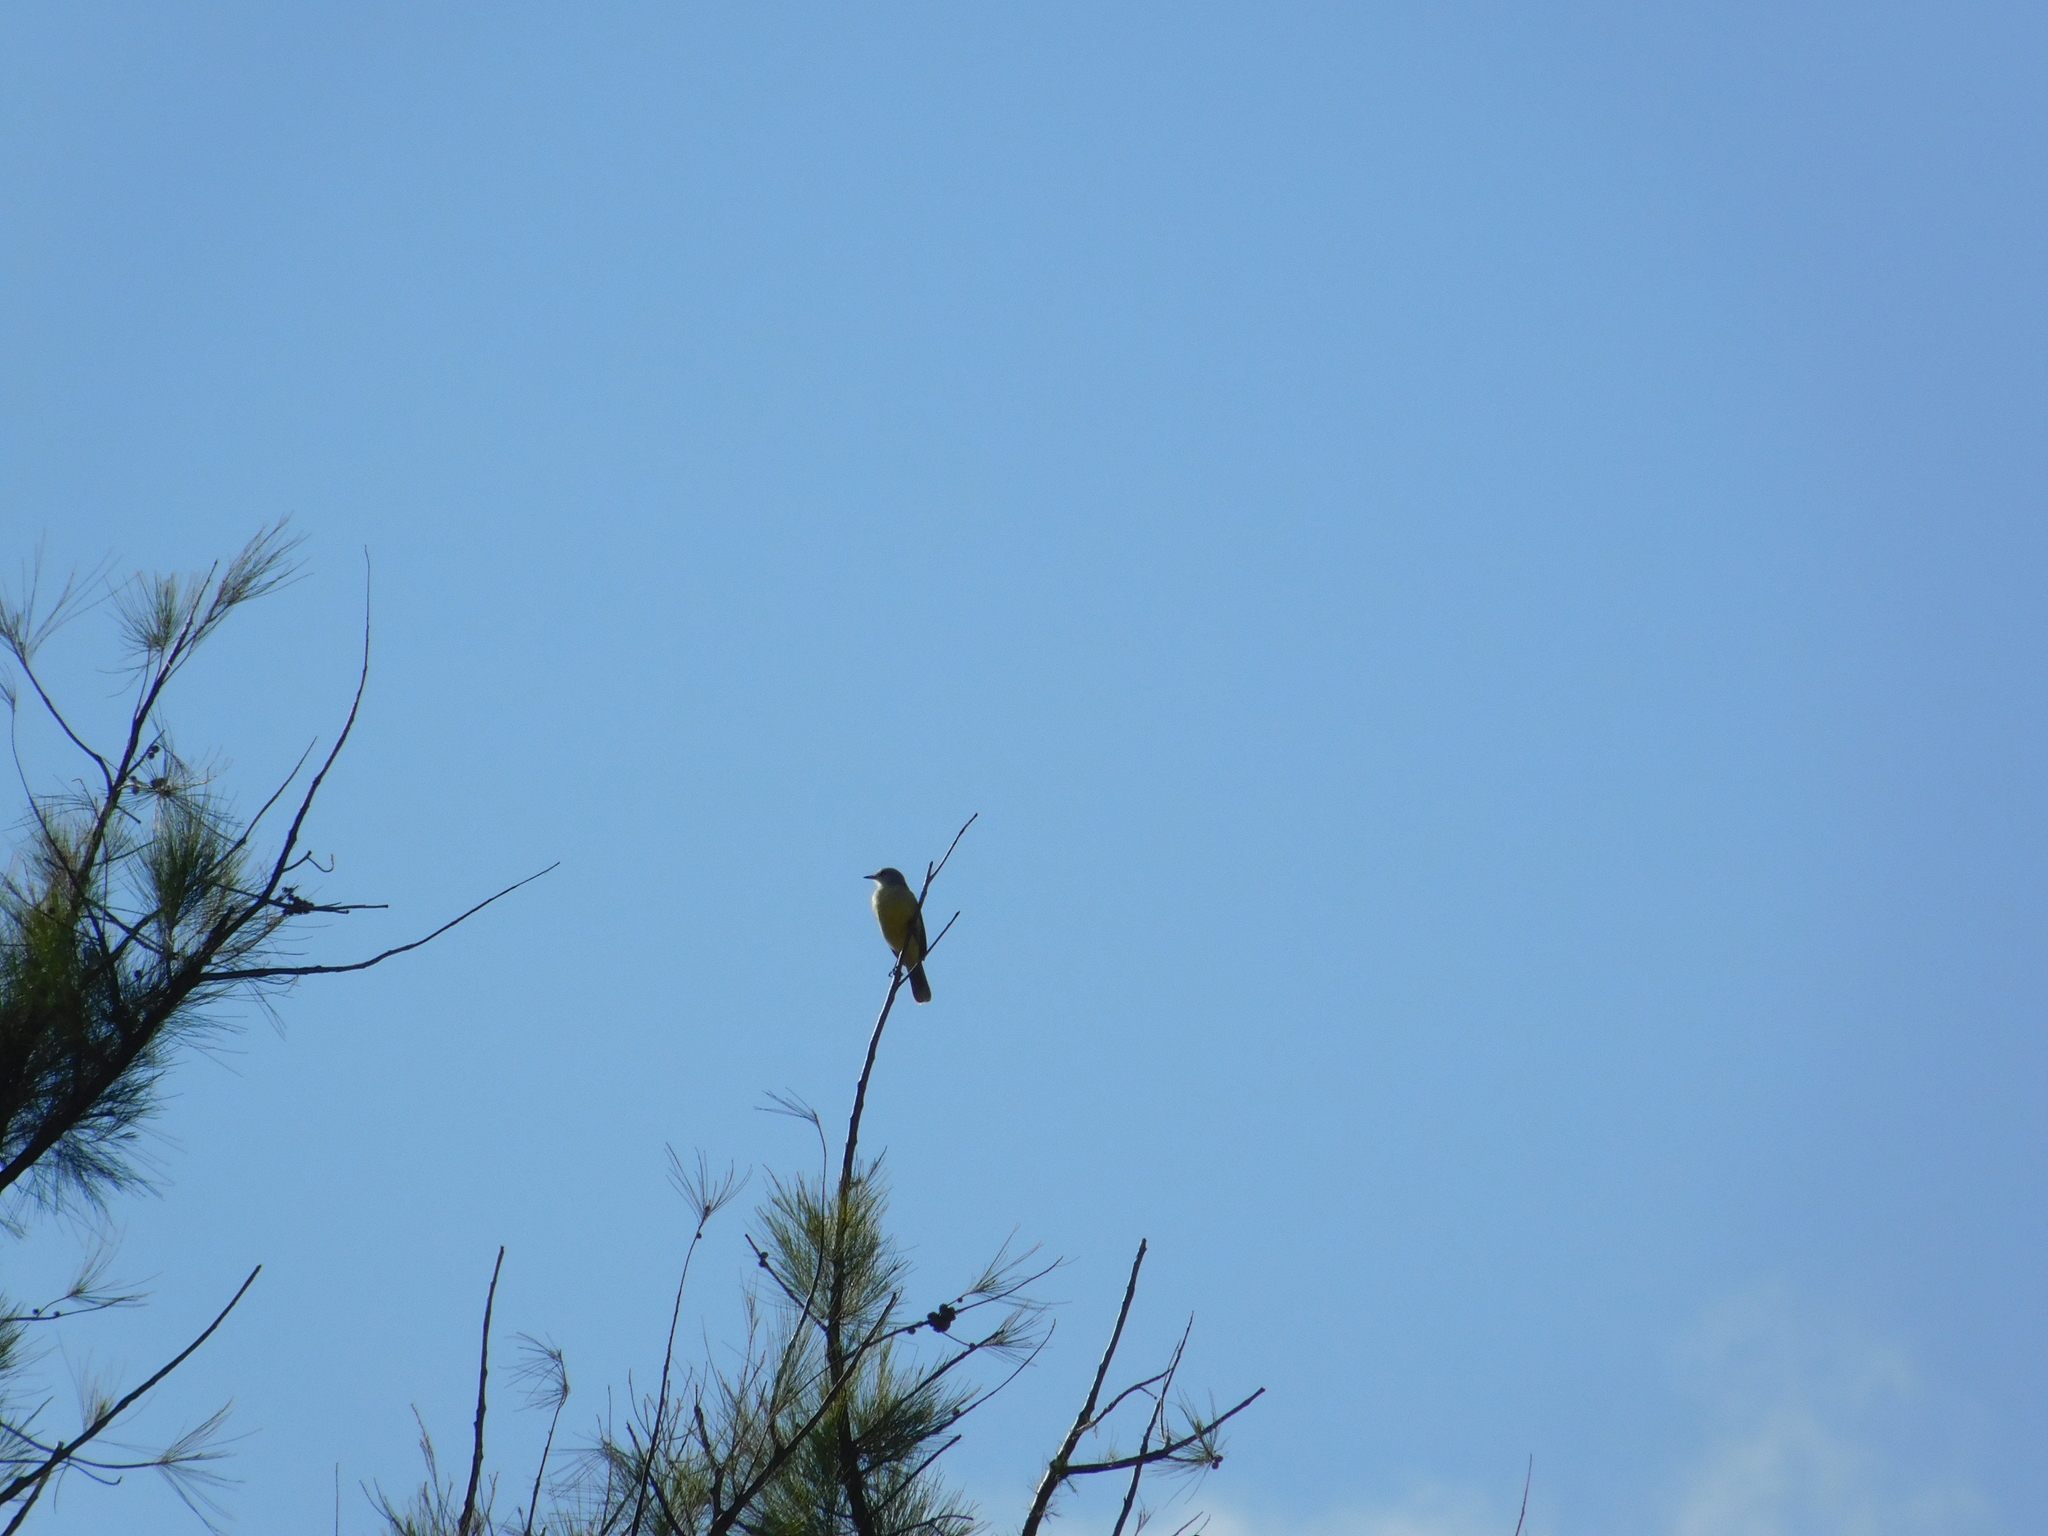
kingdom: Animalia
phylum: Chordata
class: Aves
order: Passeriformes
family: Tyrannidae
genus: Machetornis
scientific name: Machetornis rixosa
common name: Cattle tyrant
